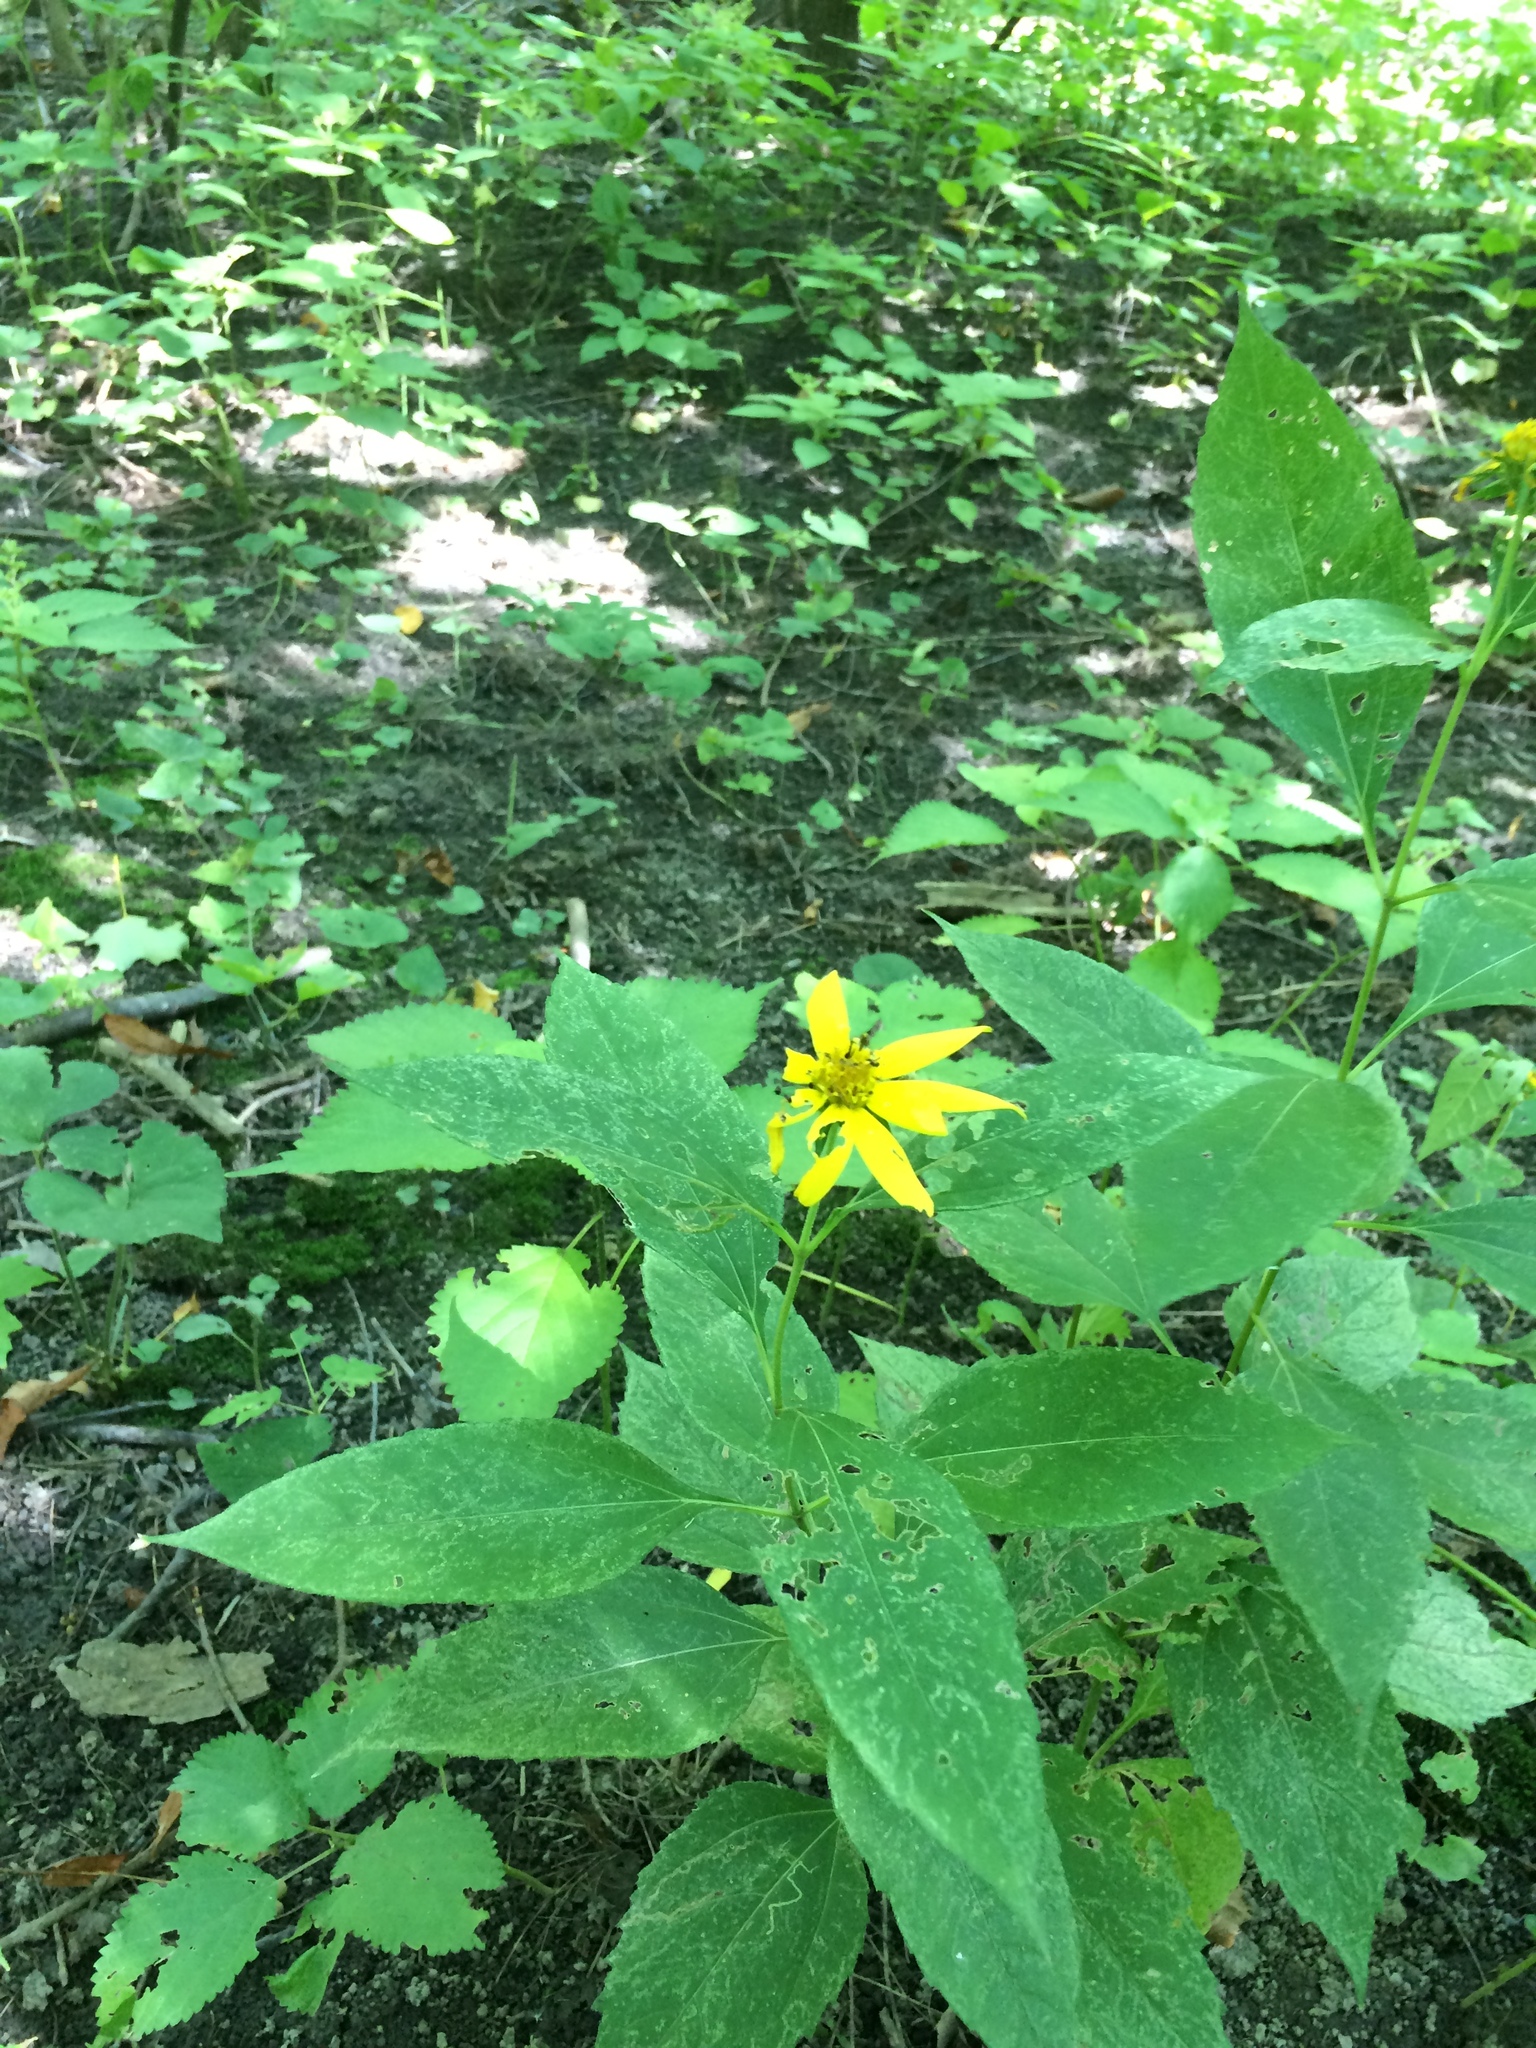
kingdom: Plantae
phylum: Tracheophyta
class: Magnoliopsida
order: Asterales
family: Asteraceae
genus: Helianthus
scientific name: Helianthus tuberosus
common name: Jerusalem artichoke
